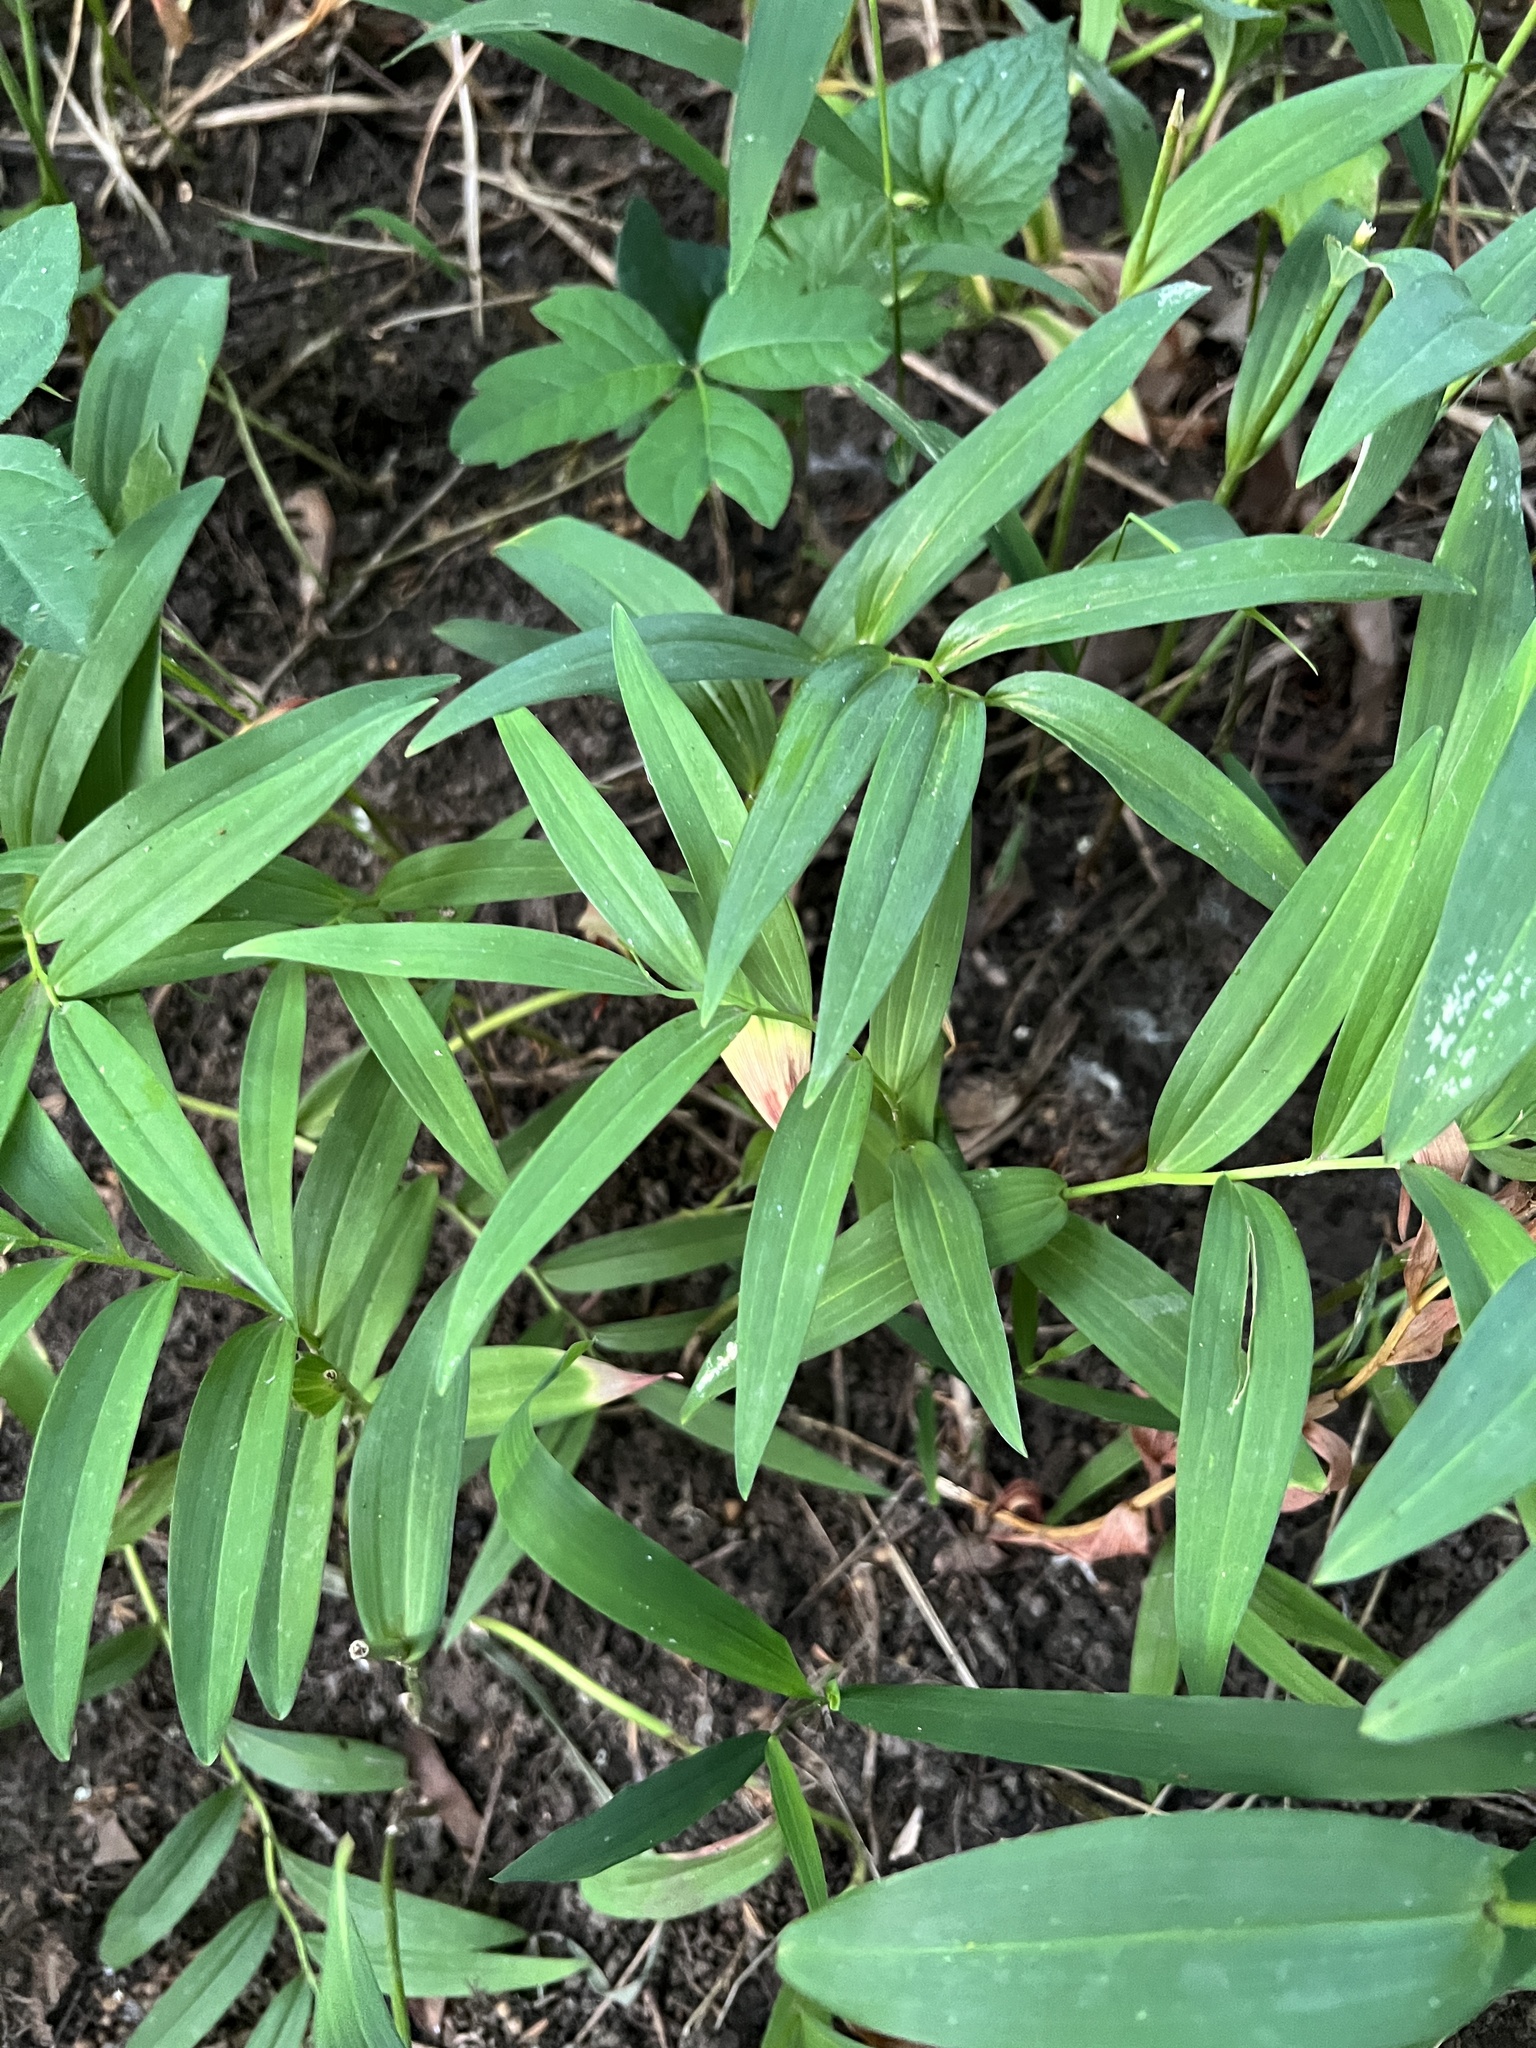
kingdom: Plantae
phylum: Tracheophyta
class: Liliopsida
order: Asparagales
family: Asparagaceae
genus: Maianthemum
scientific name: Maianthemum stellatum
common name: Little false solomon's seal
